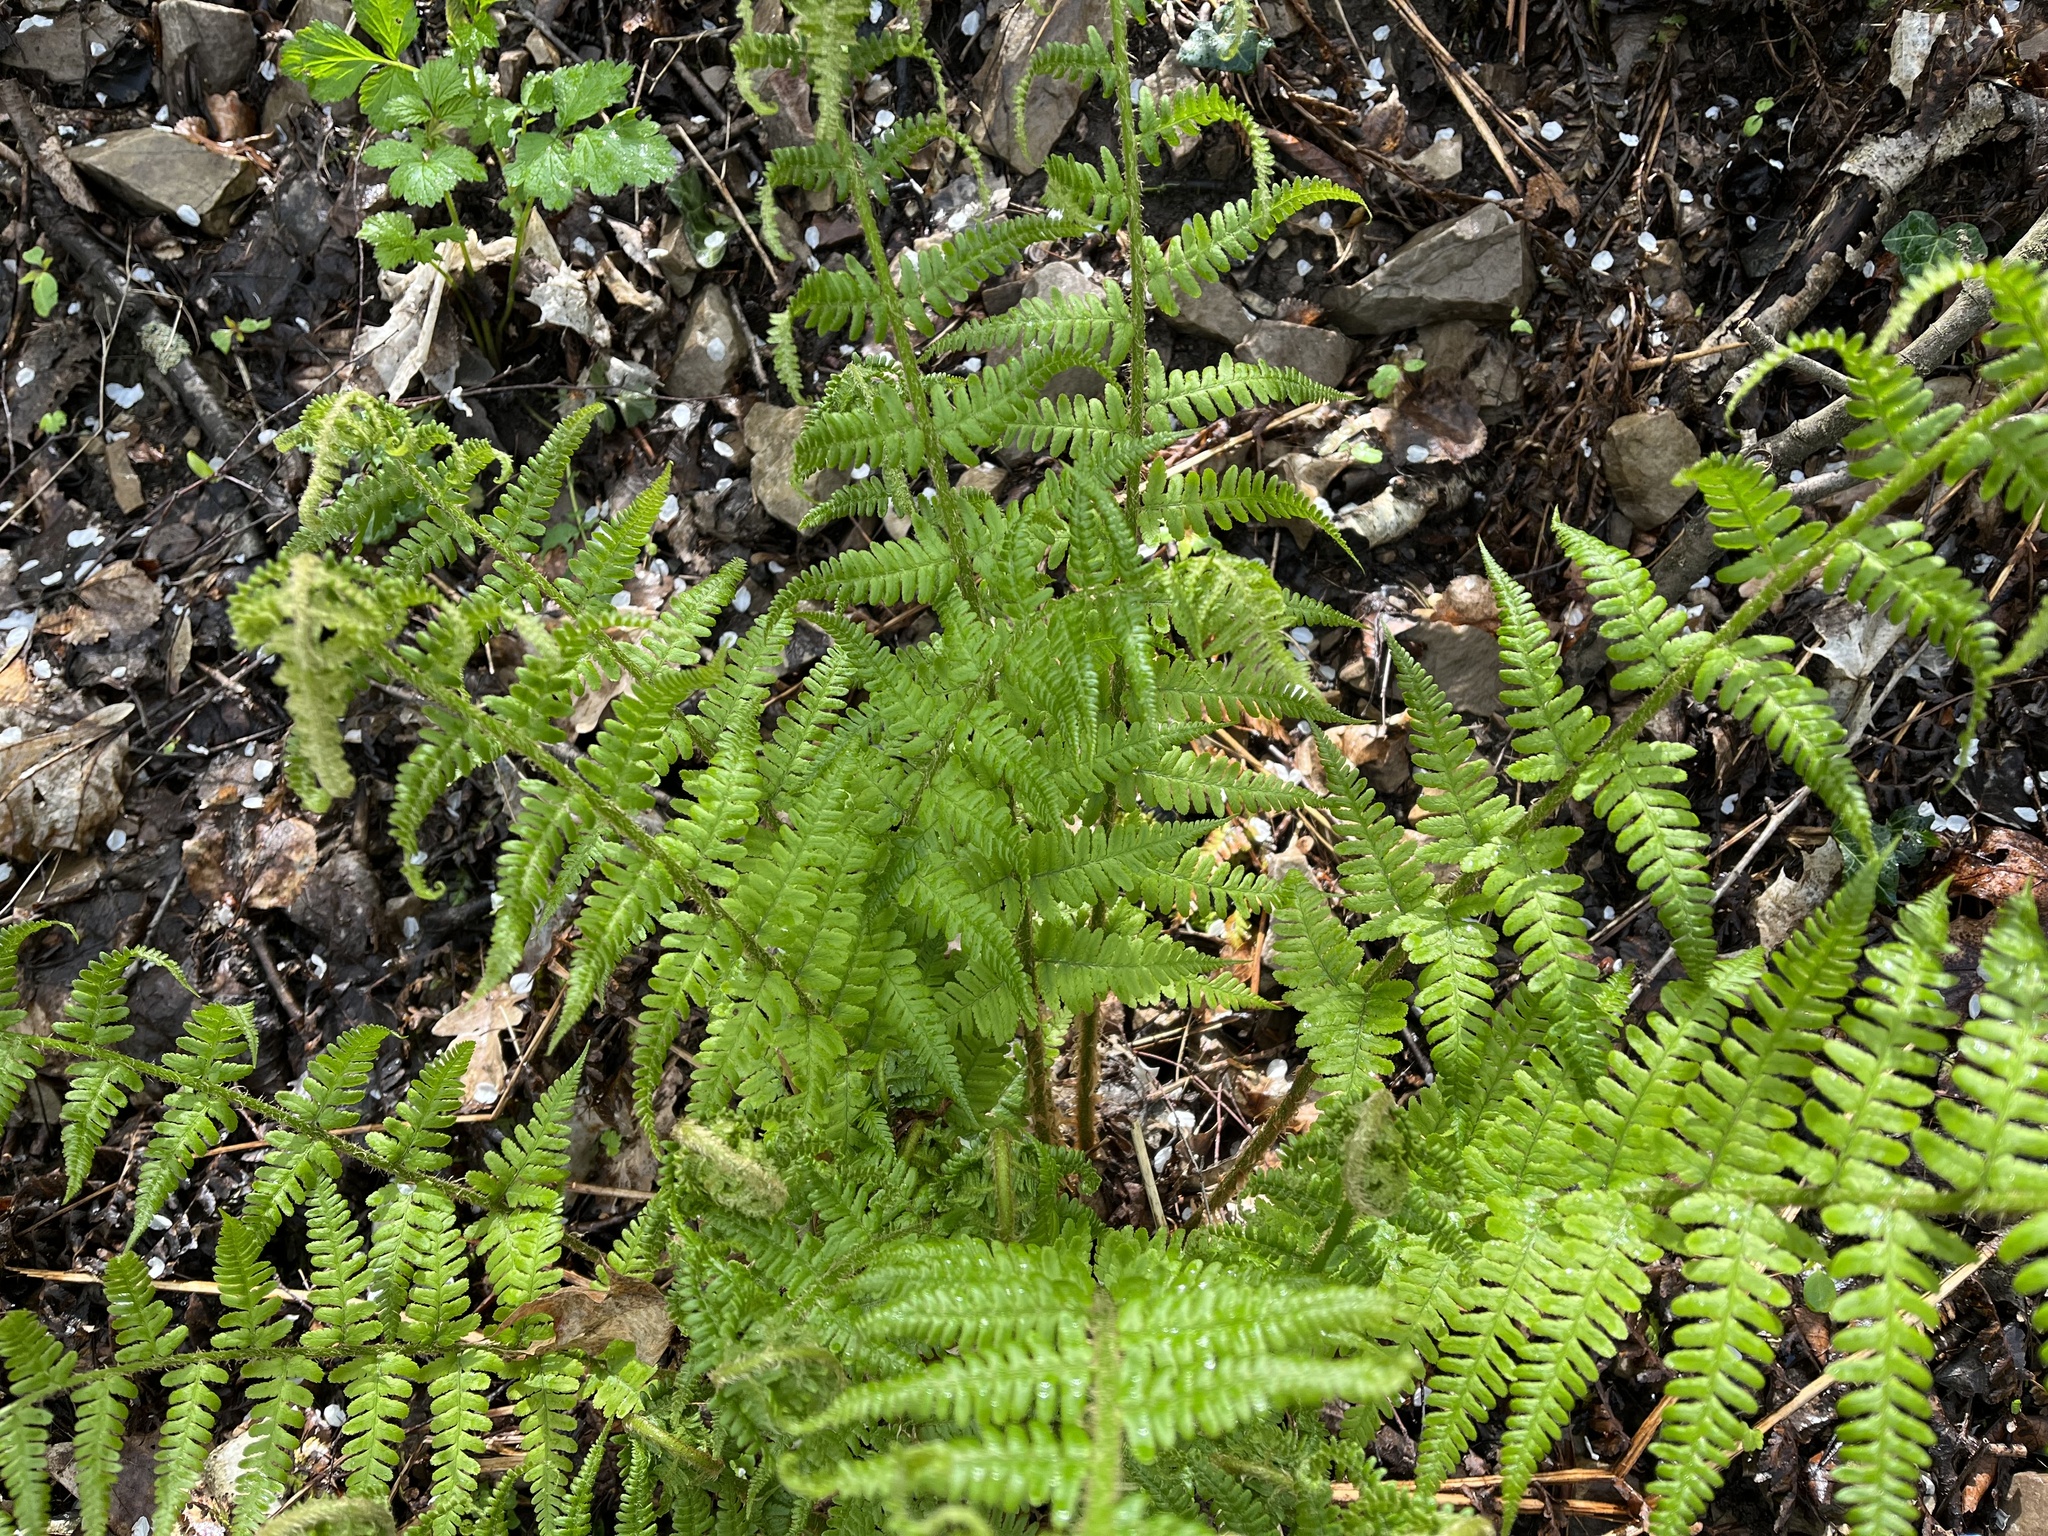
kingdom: Plantae
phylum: Tracheophyta
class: Polypodiopsida
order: Polypodiales
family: Dryopteridaceae
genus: Dryopteris
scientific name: Dryopteris filix-mas
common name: Male fern
